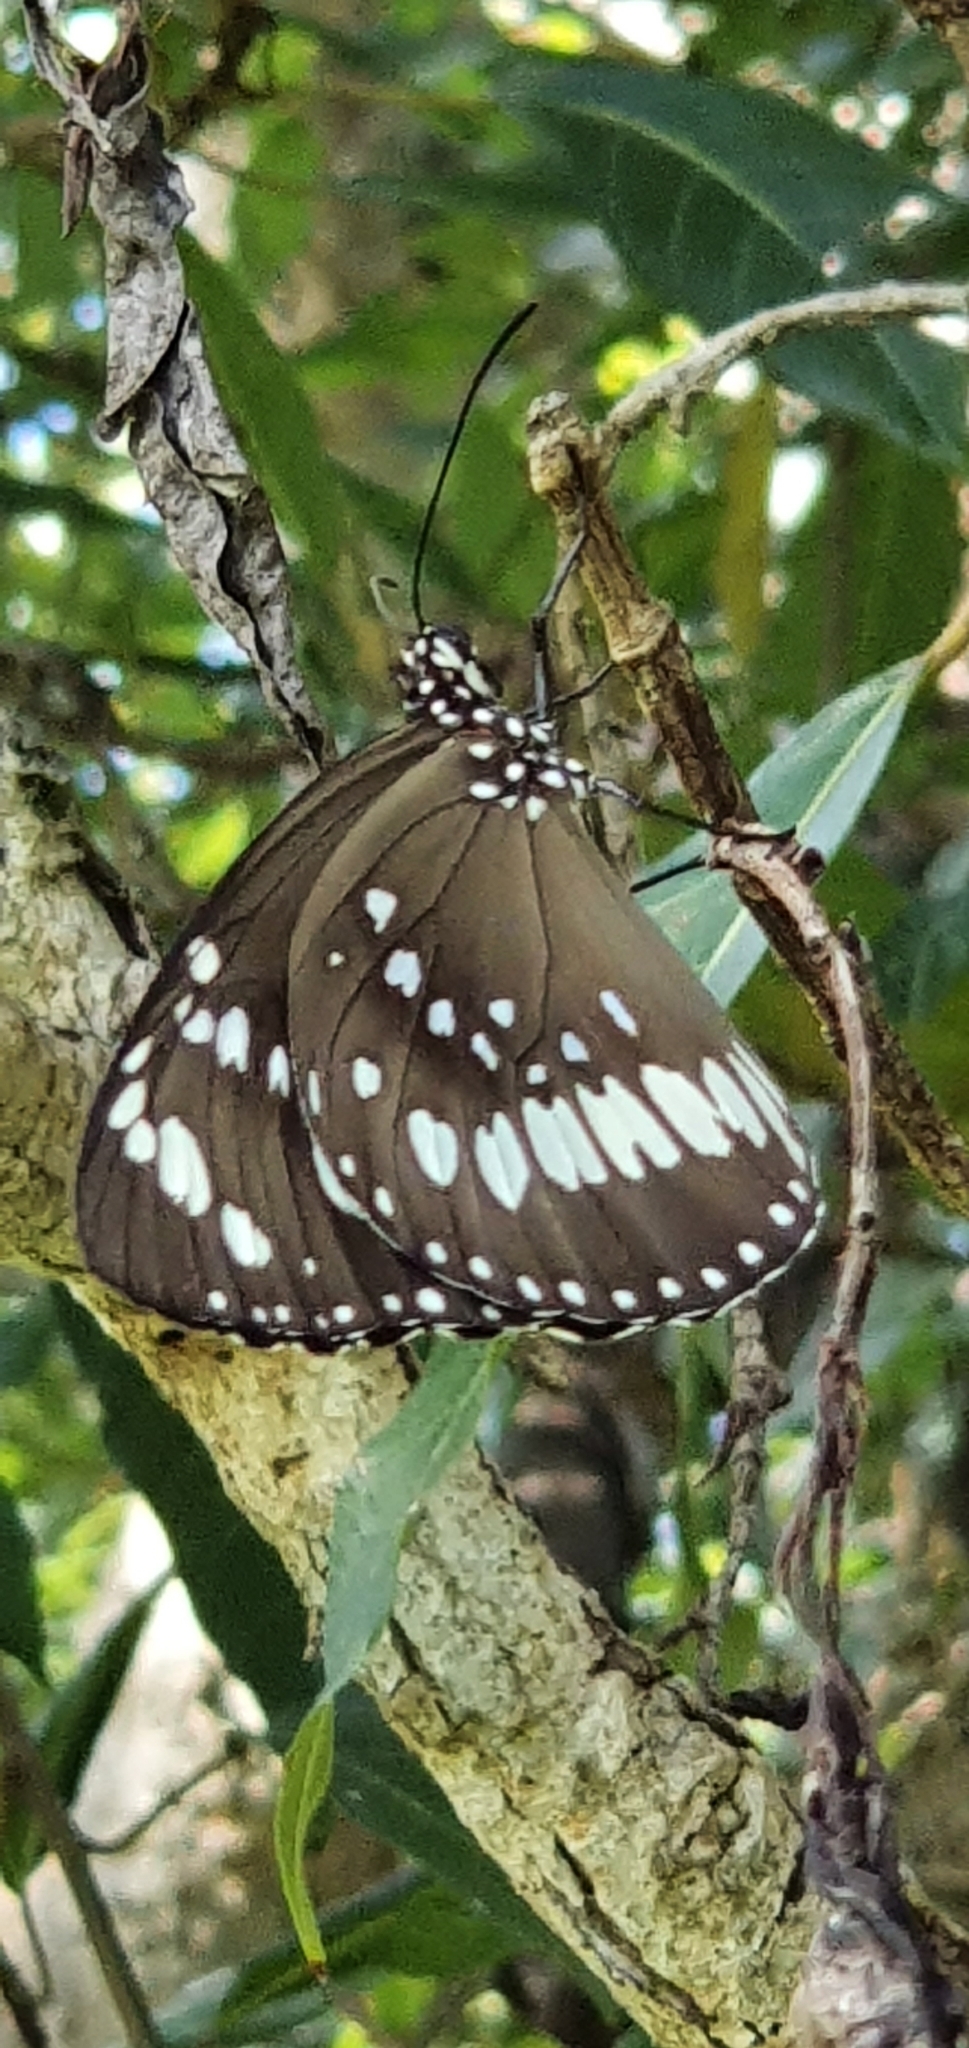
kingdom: Animalia
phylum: Arthropoda
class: Insecta
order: Lepidoptera
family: Nymphalidae
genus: Euploea
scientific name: Euploea core
